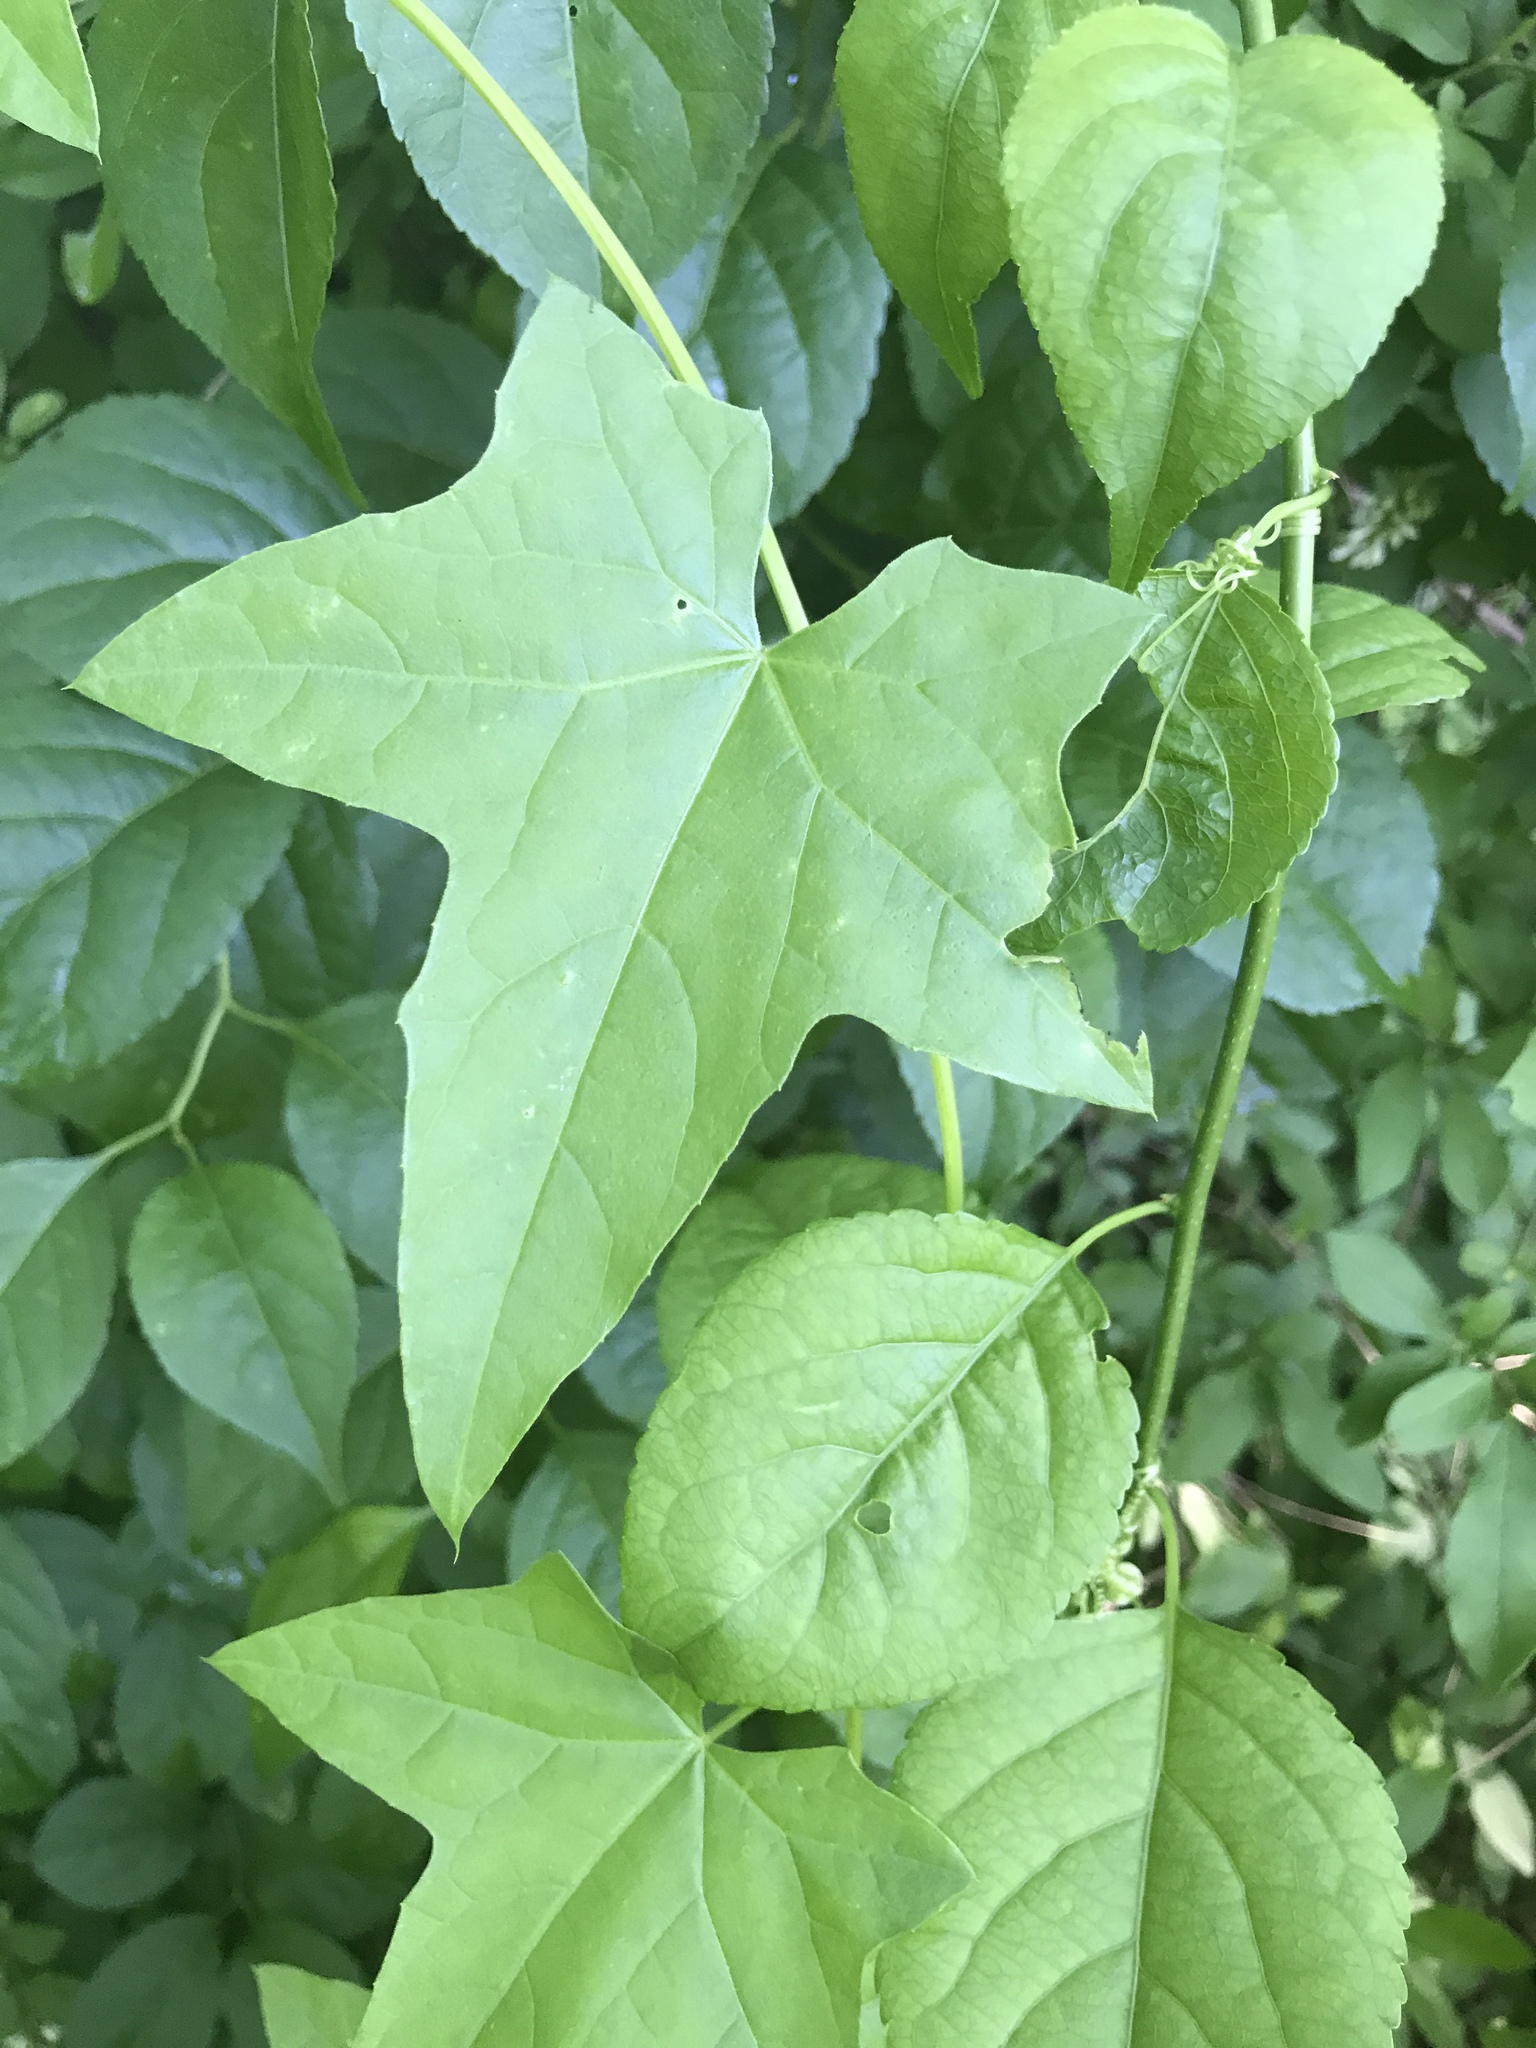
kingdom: Plantae
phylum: Tracheophyta
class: Magnoliopsida
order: Cucurbitales
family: Cucurbitaceae
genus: Echinocystis
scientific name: Echinocystis lobata
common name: Wild cucumber
